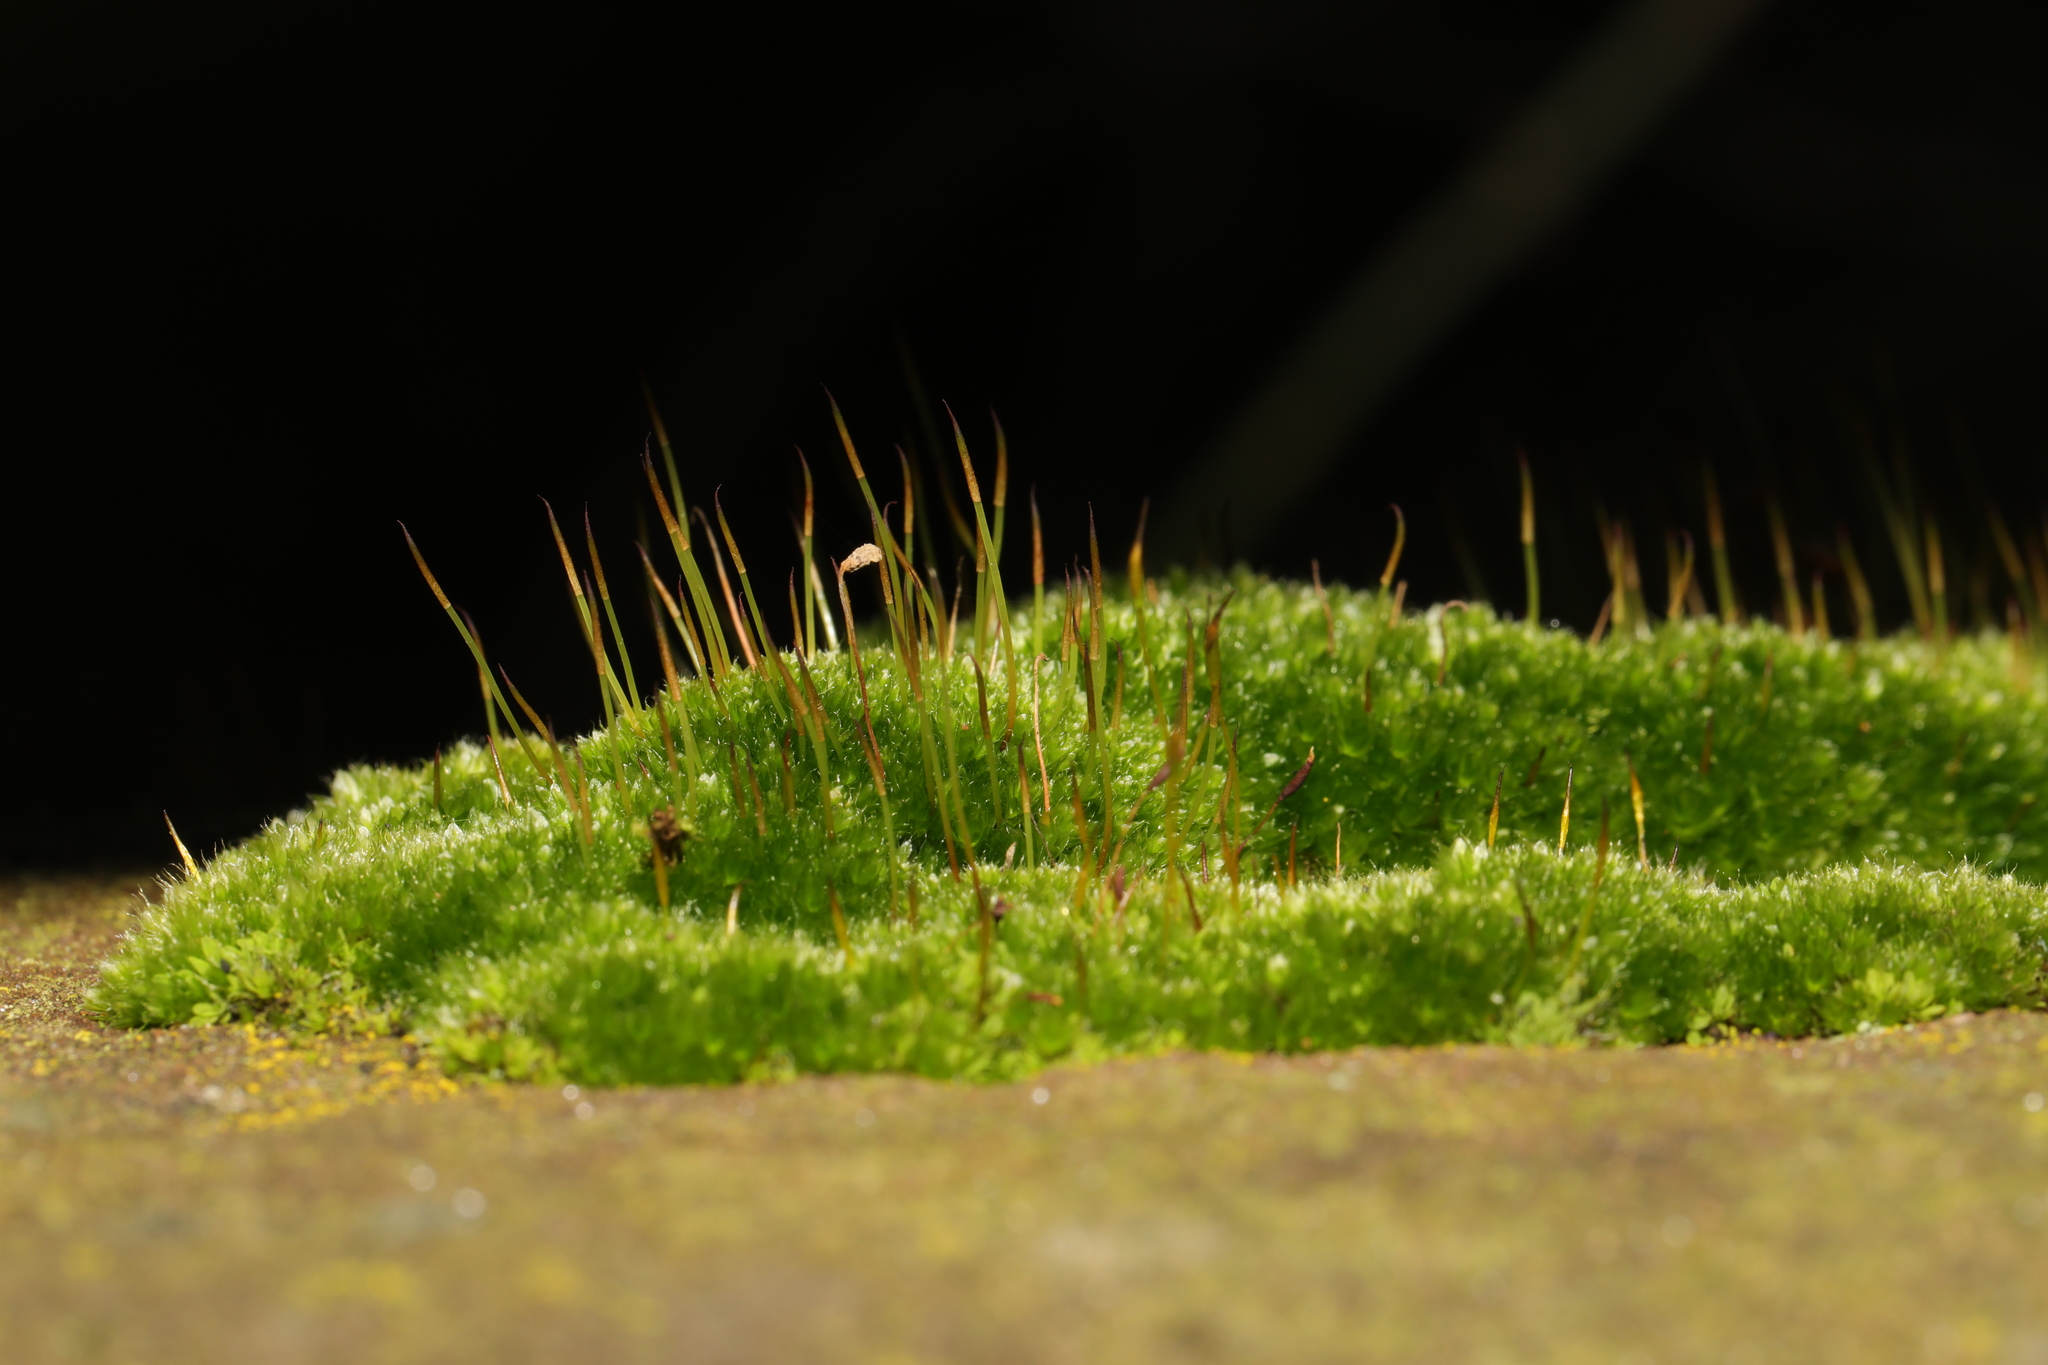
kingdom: Plantae
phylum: Bryophyta
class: Bryopsida
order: Pottiales
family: Pottiaceae
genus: Tortula
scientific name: Tortula muralis
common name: Wall screw-moss
